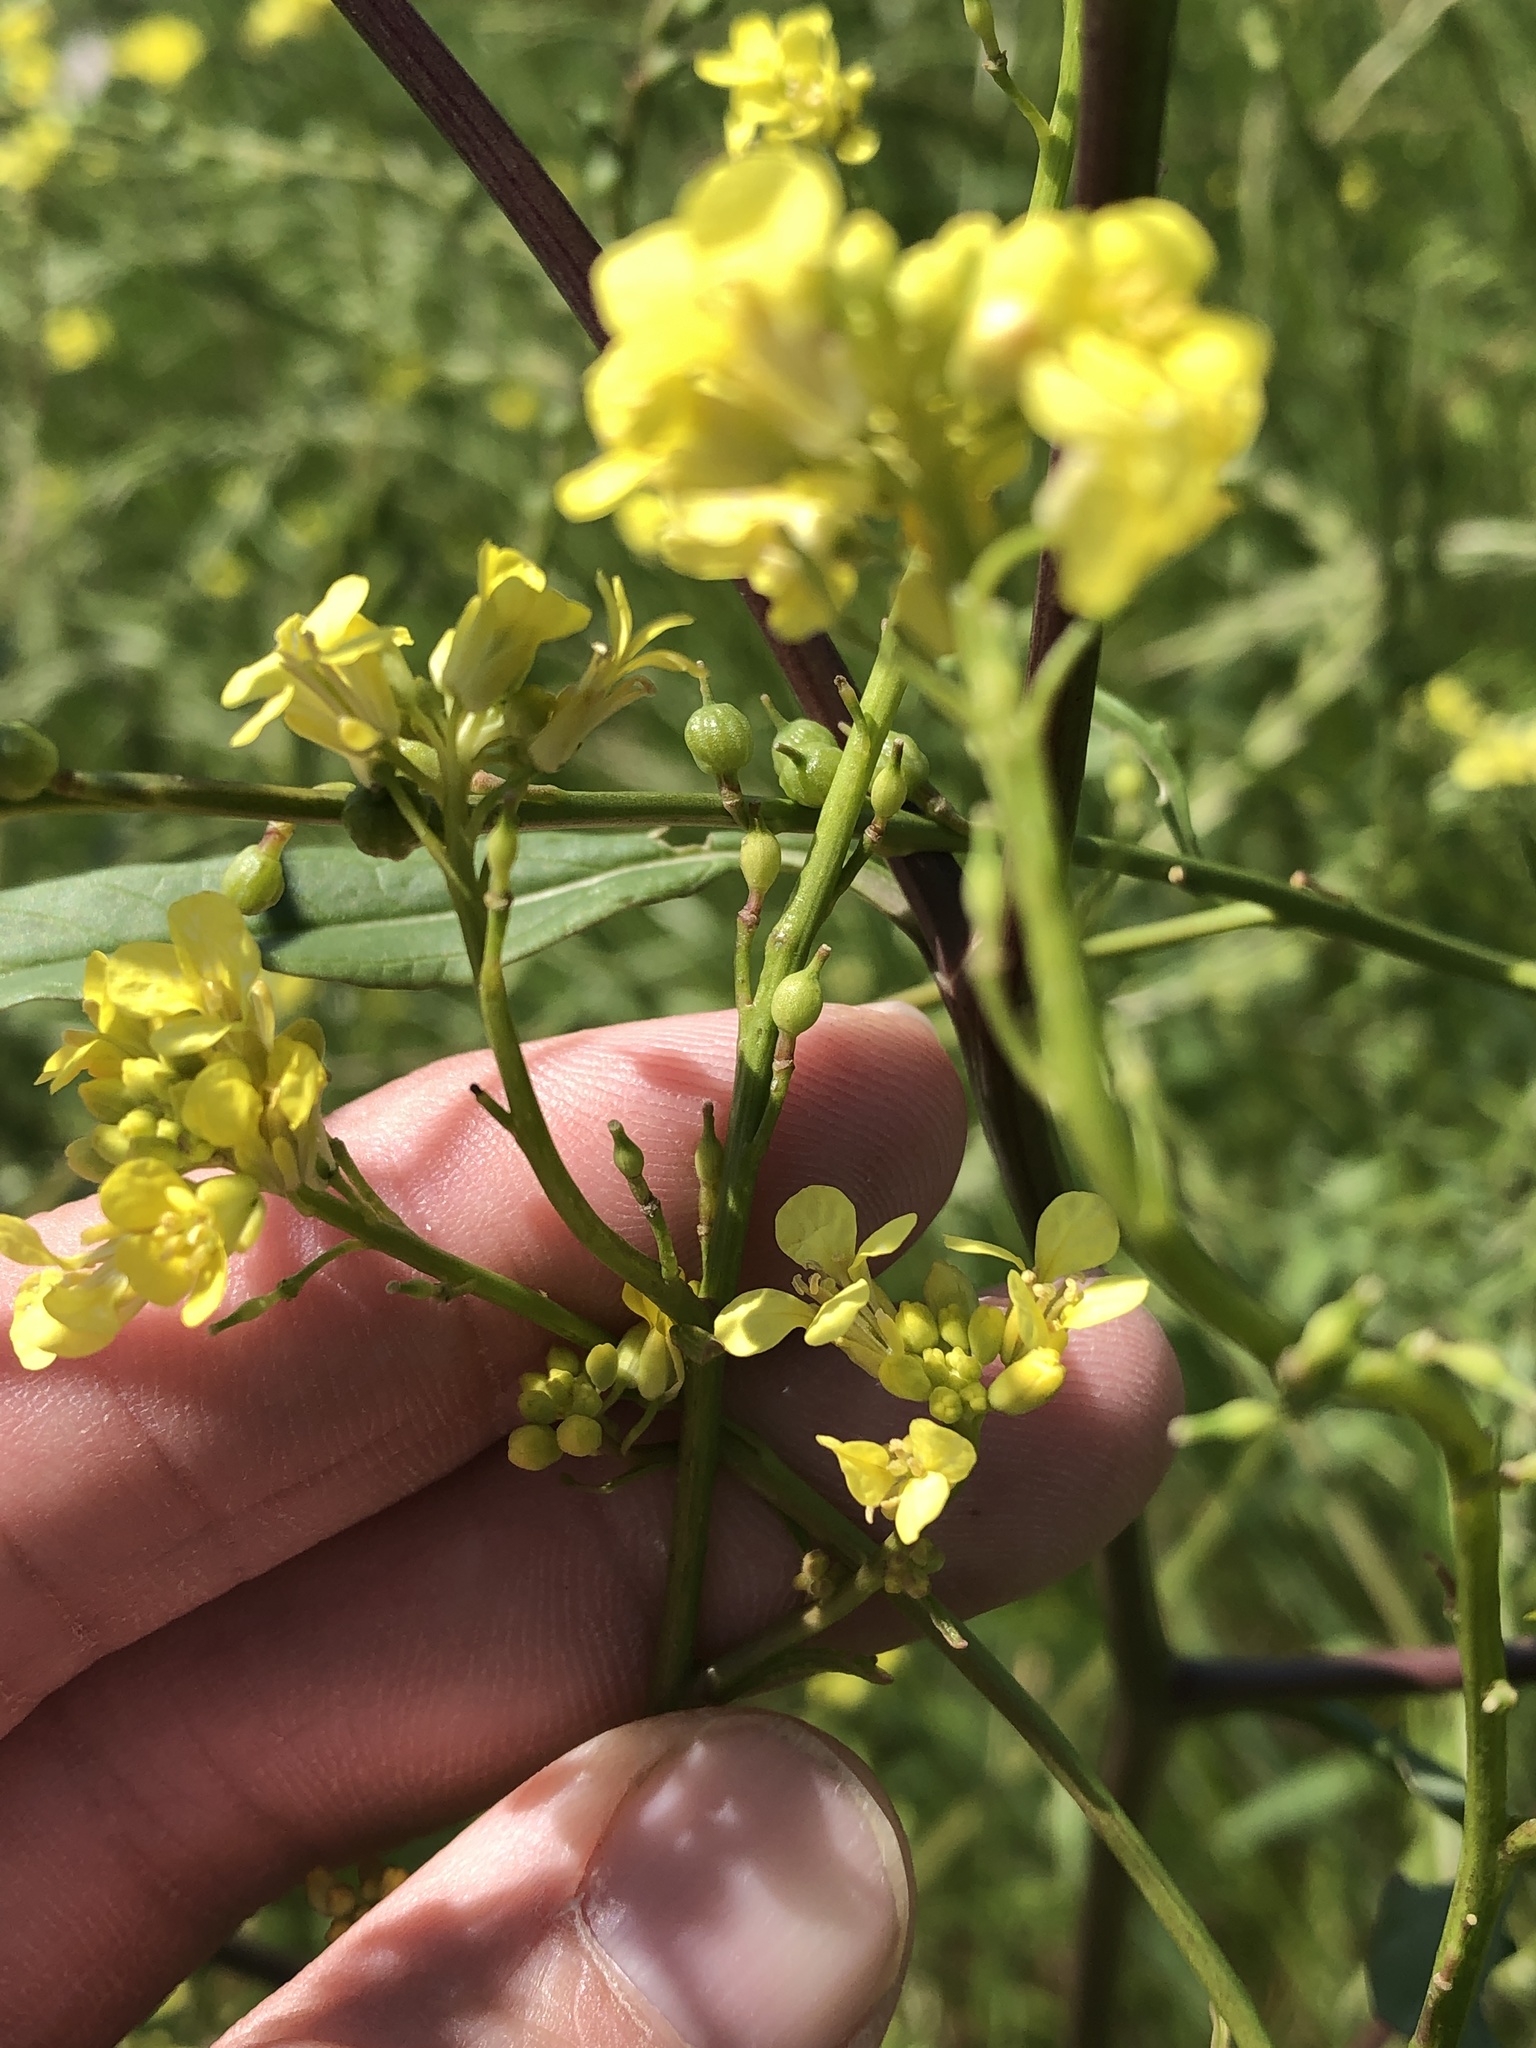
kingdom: Plantae
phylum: Tracheophyta
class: Magnoliopsida
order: Brassicales
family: Brassicaceae
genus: Rapistrum
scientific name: Rapistrum rugosum
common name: Annual bastardcabbage
